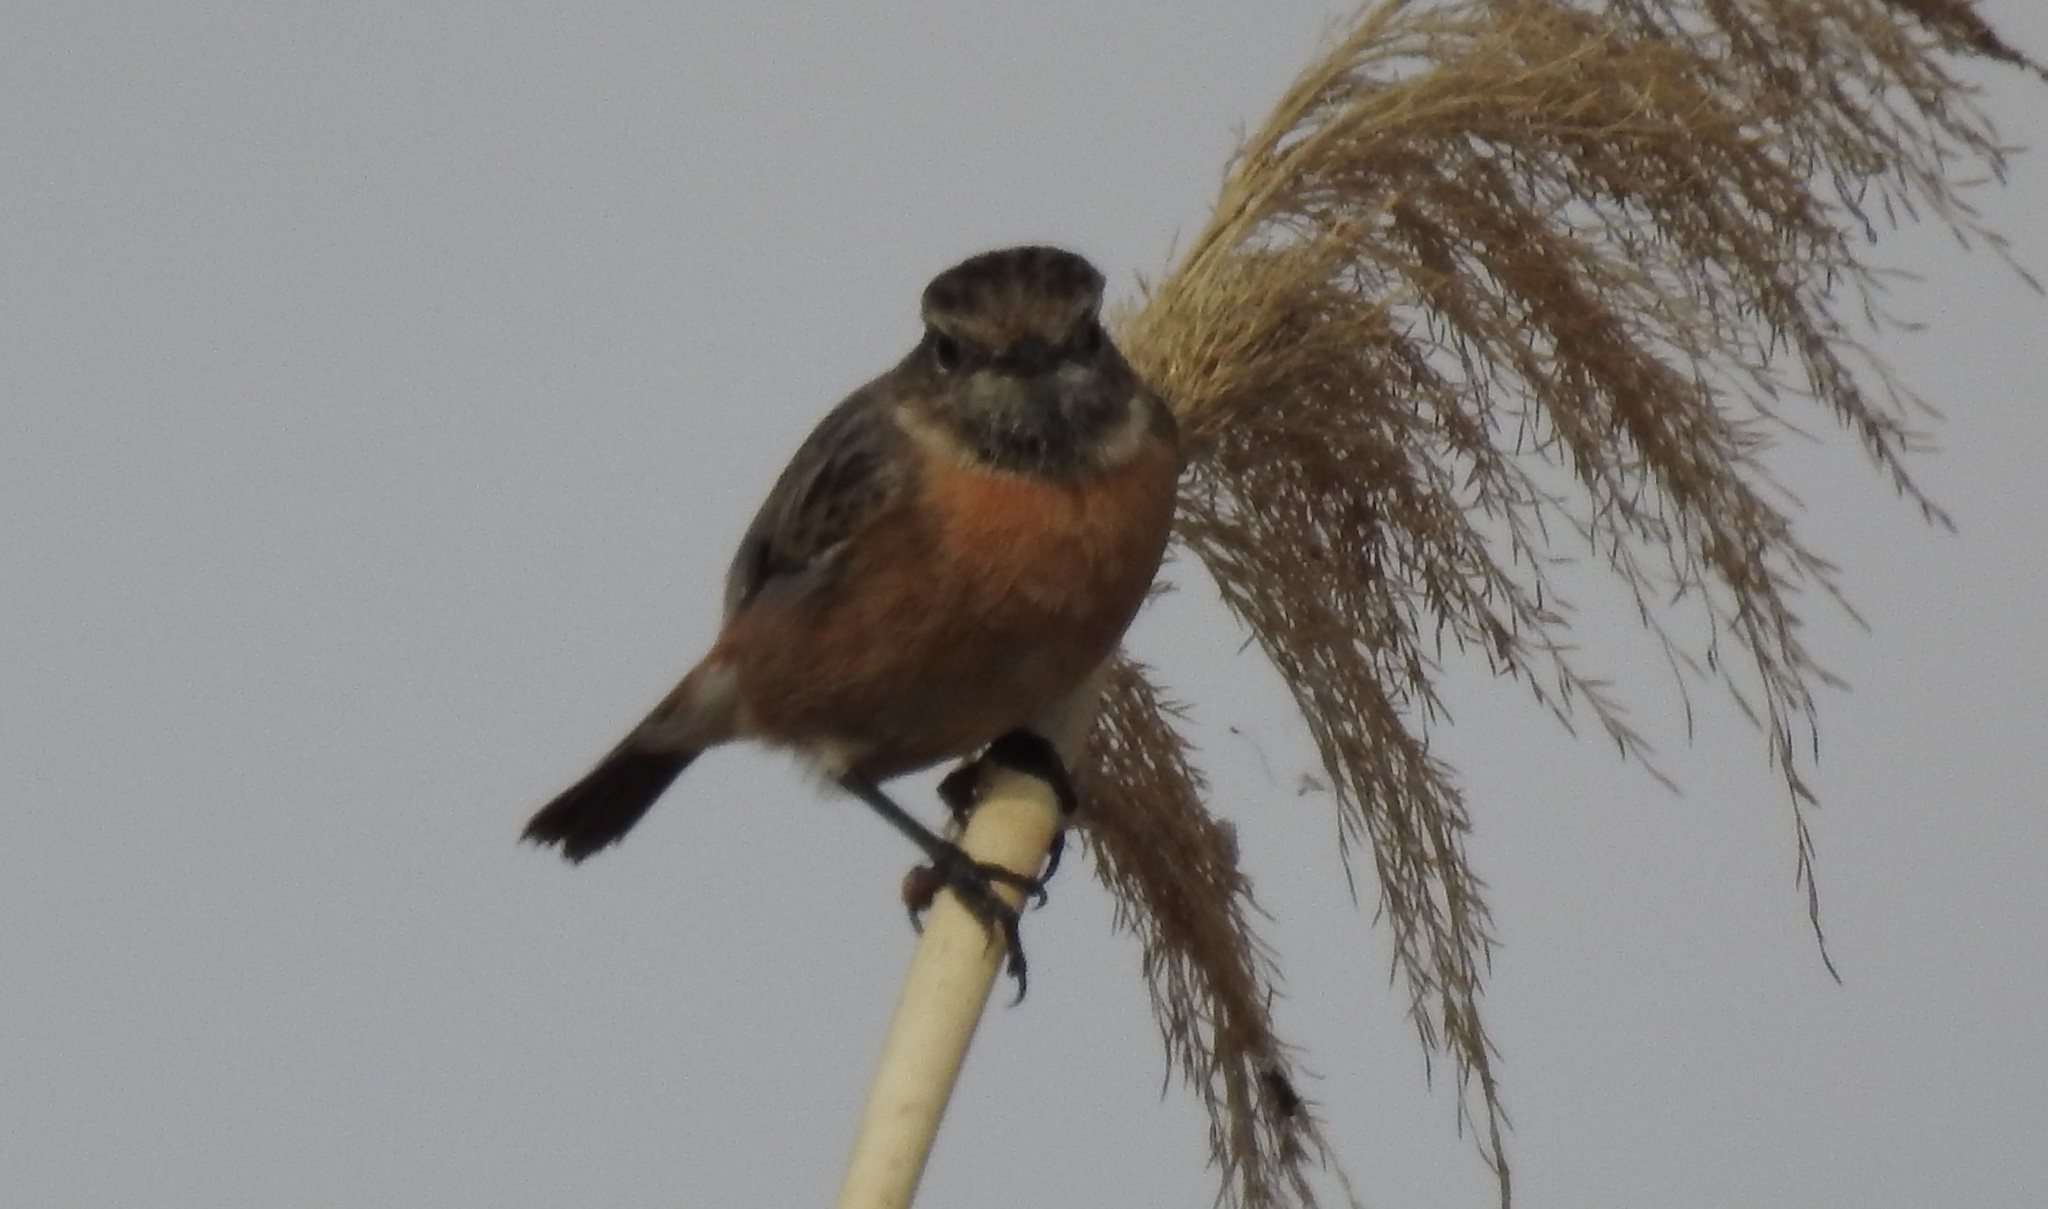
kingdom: Animalia
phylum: Chordata
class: Aves
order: Passeriformes
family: Muscicapidae
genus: Saxicola
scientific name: Saxicola rubicola
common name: European stonechat
